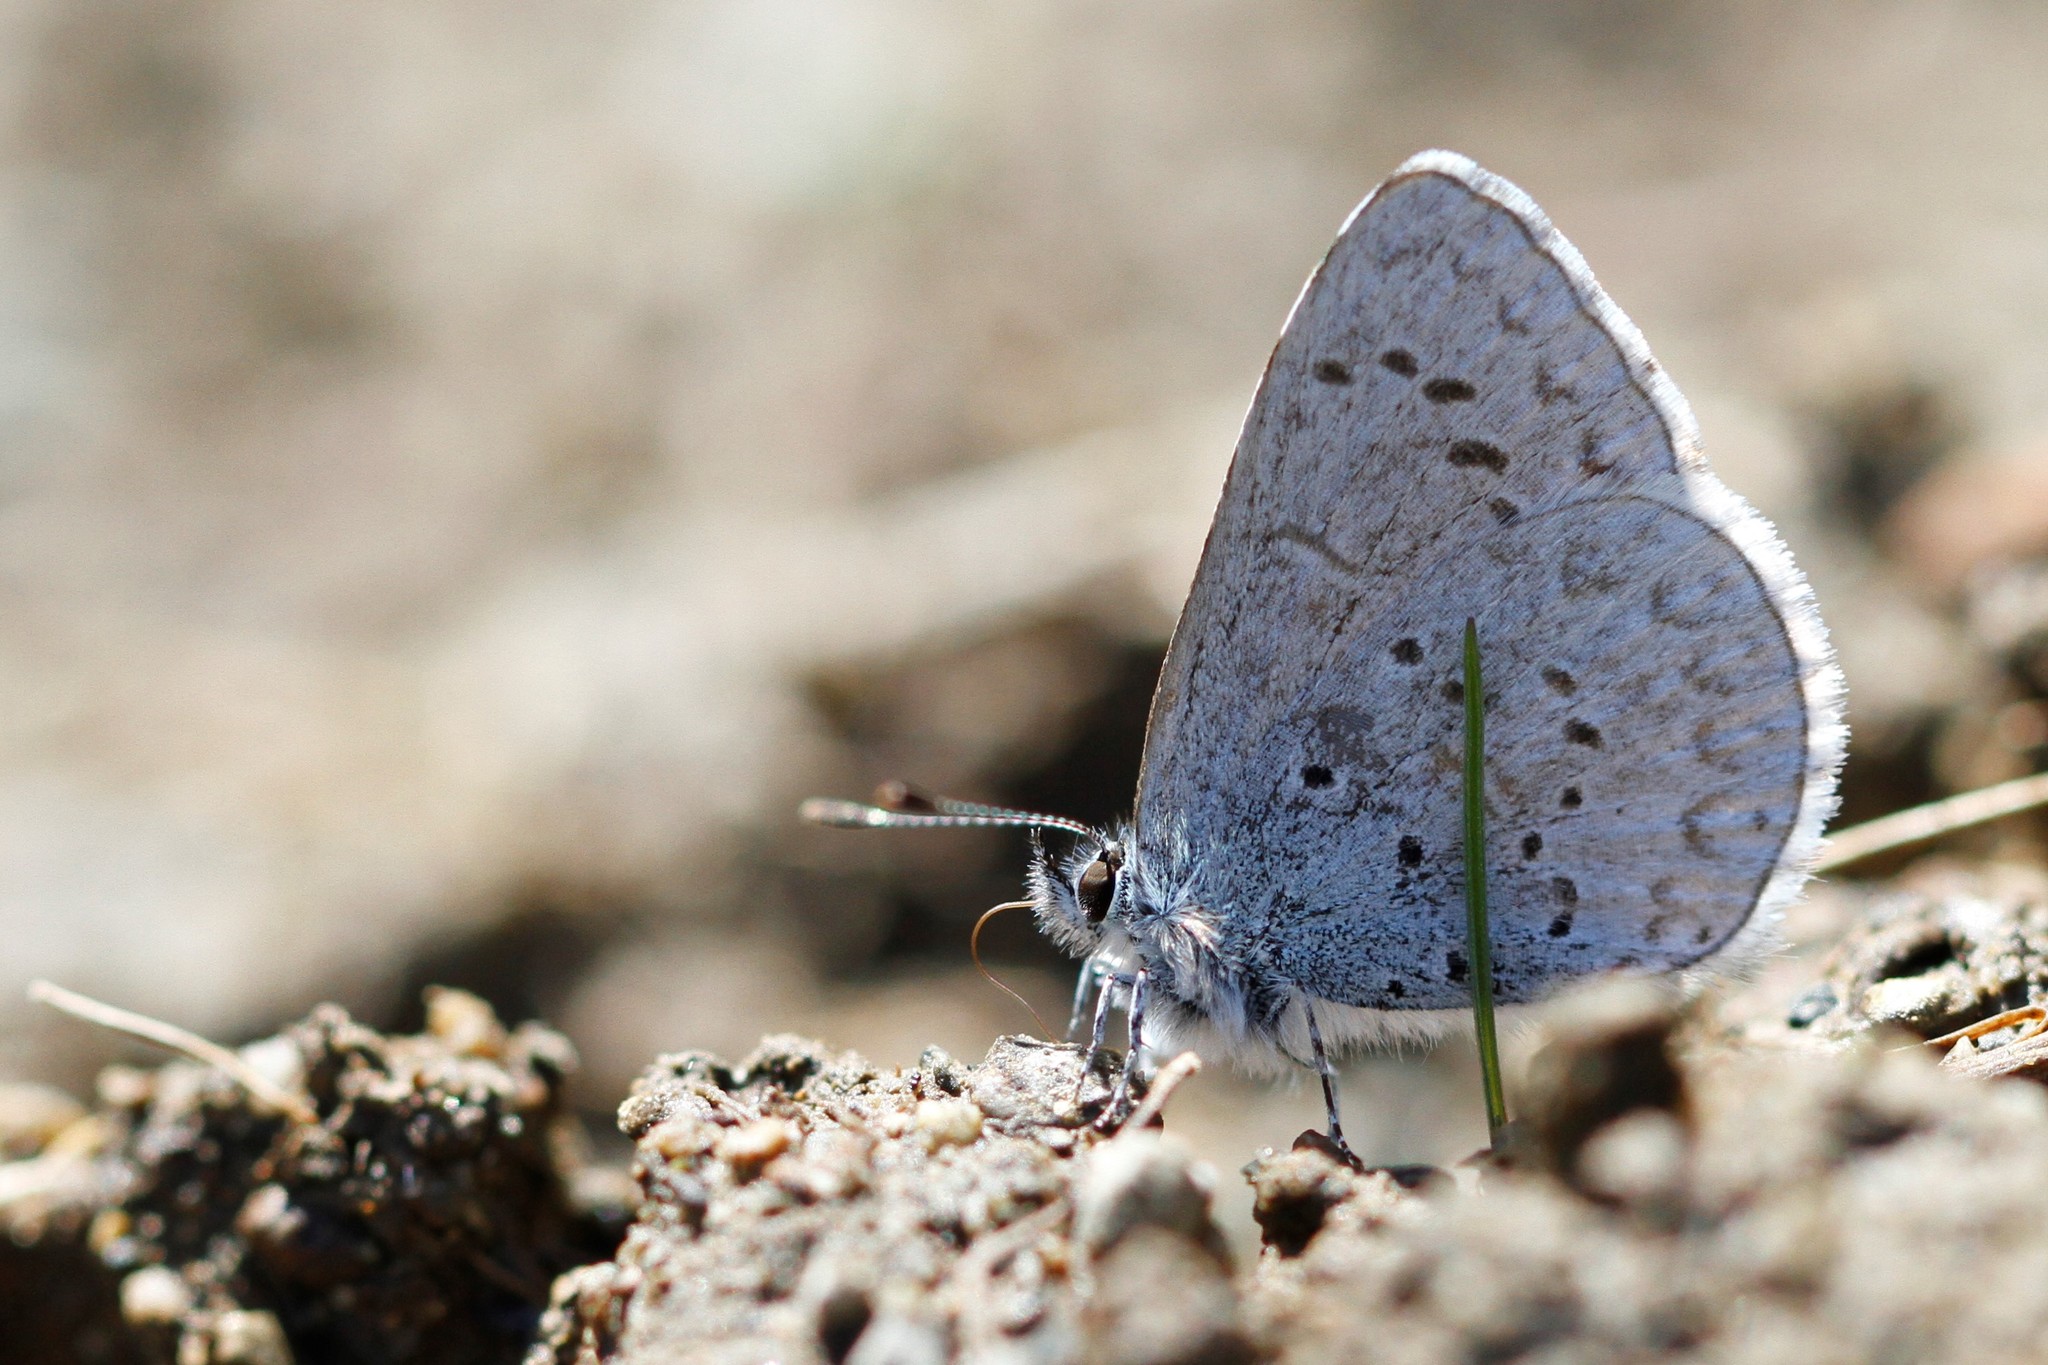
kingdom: Animalia
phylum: Arthropoda
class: Insecta
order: Lepidoptera
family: Lycaenidae
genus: Celastrina
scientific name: Celastrina ladon
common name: Spring azure
